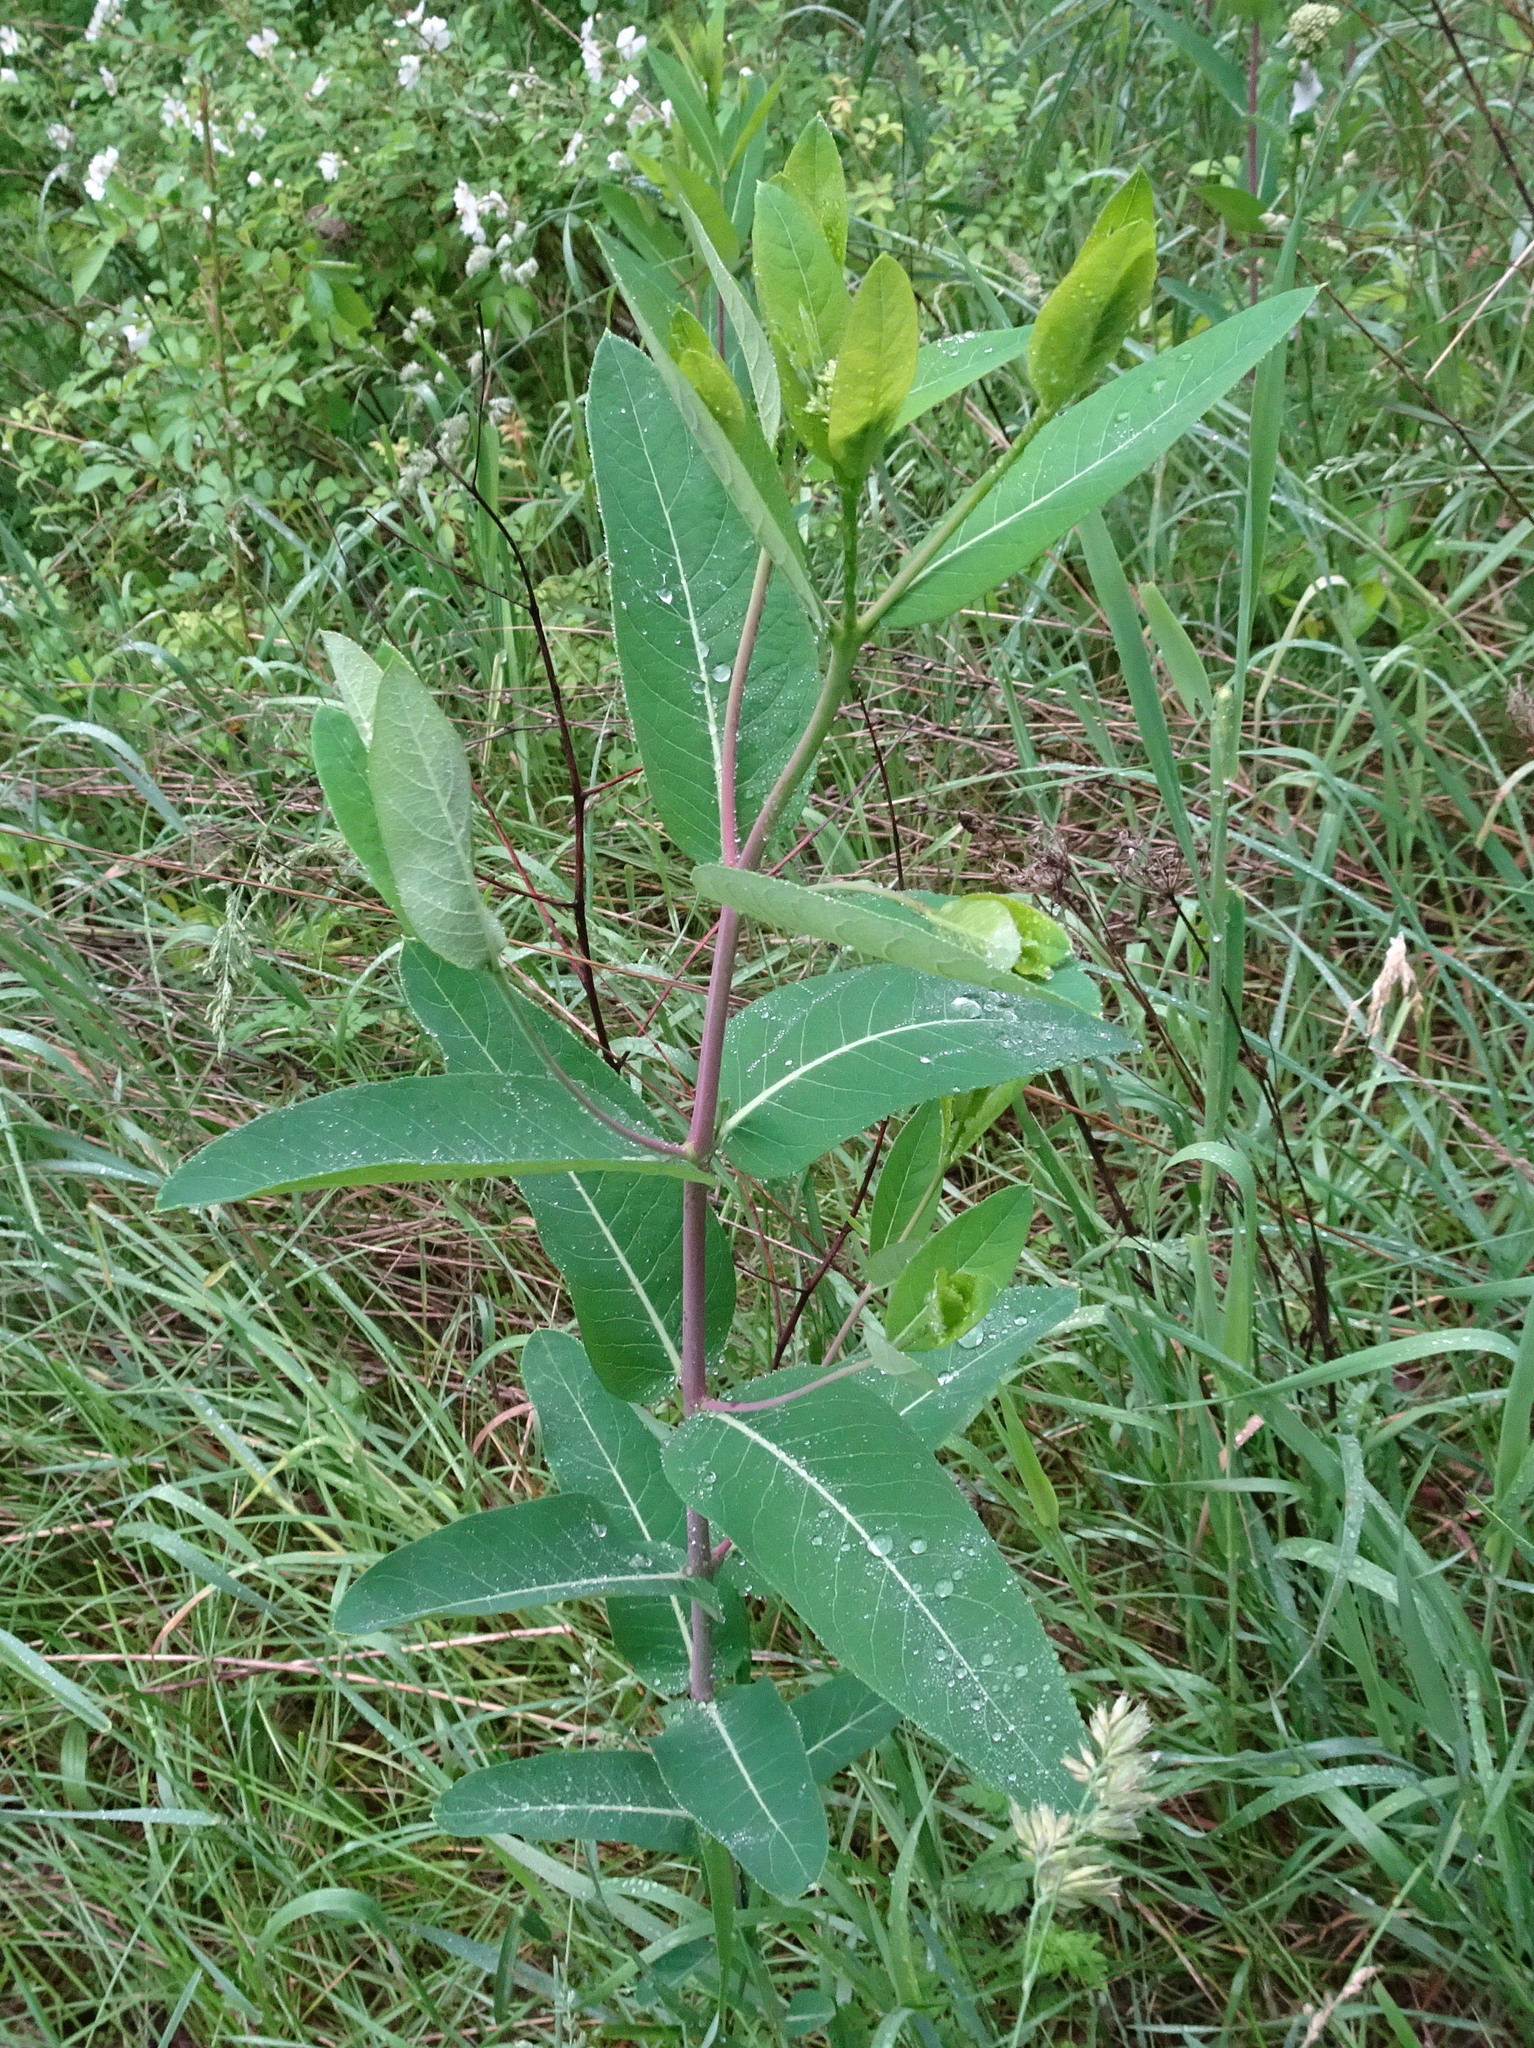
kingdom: Plantae
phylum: Tracheophyta
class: Magnoliopsida
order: Gentianales
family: Apocynaceae
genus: Apocynum
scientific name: Apocynum cannabinum
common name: Hemp dogbane
